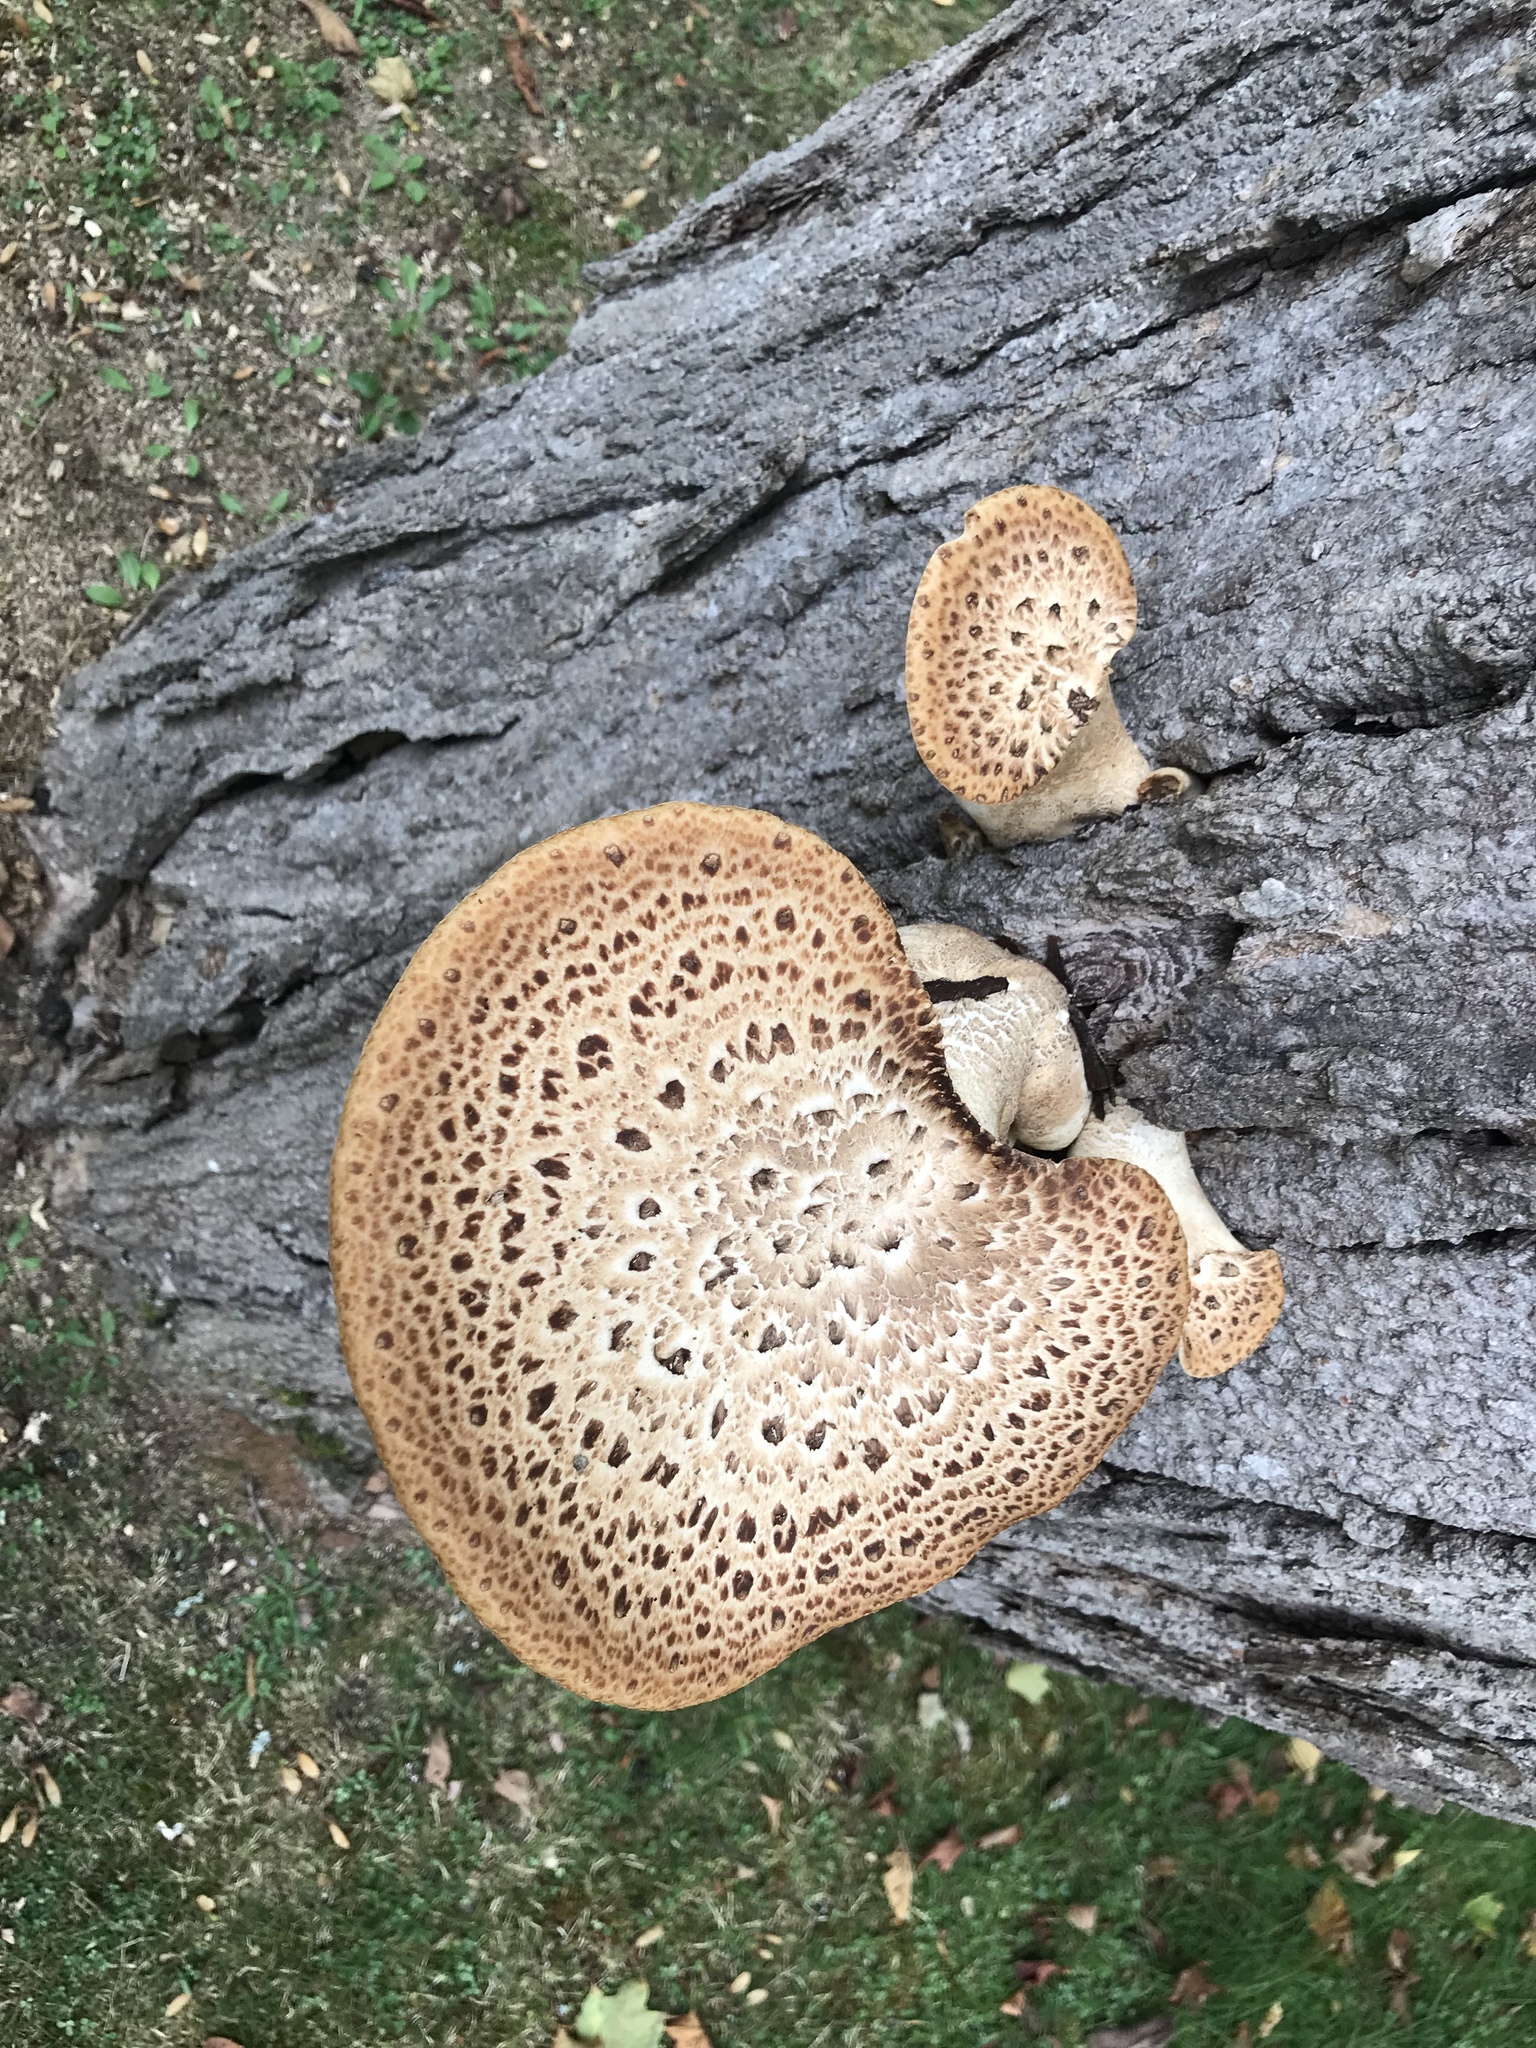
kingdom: Fungi
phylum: Basidiomycota
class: Agaricomycetes
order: Polyporales
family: Polyporaceae
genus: Cerioporus
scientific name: Cerioporus squamosus
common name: Dryad's saddle
